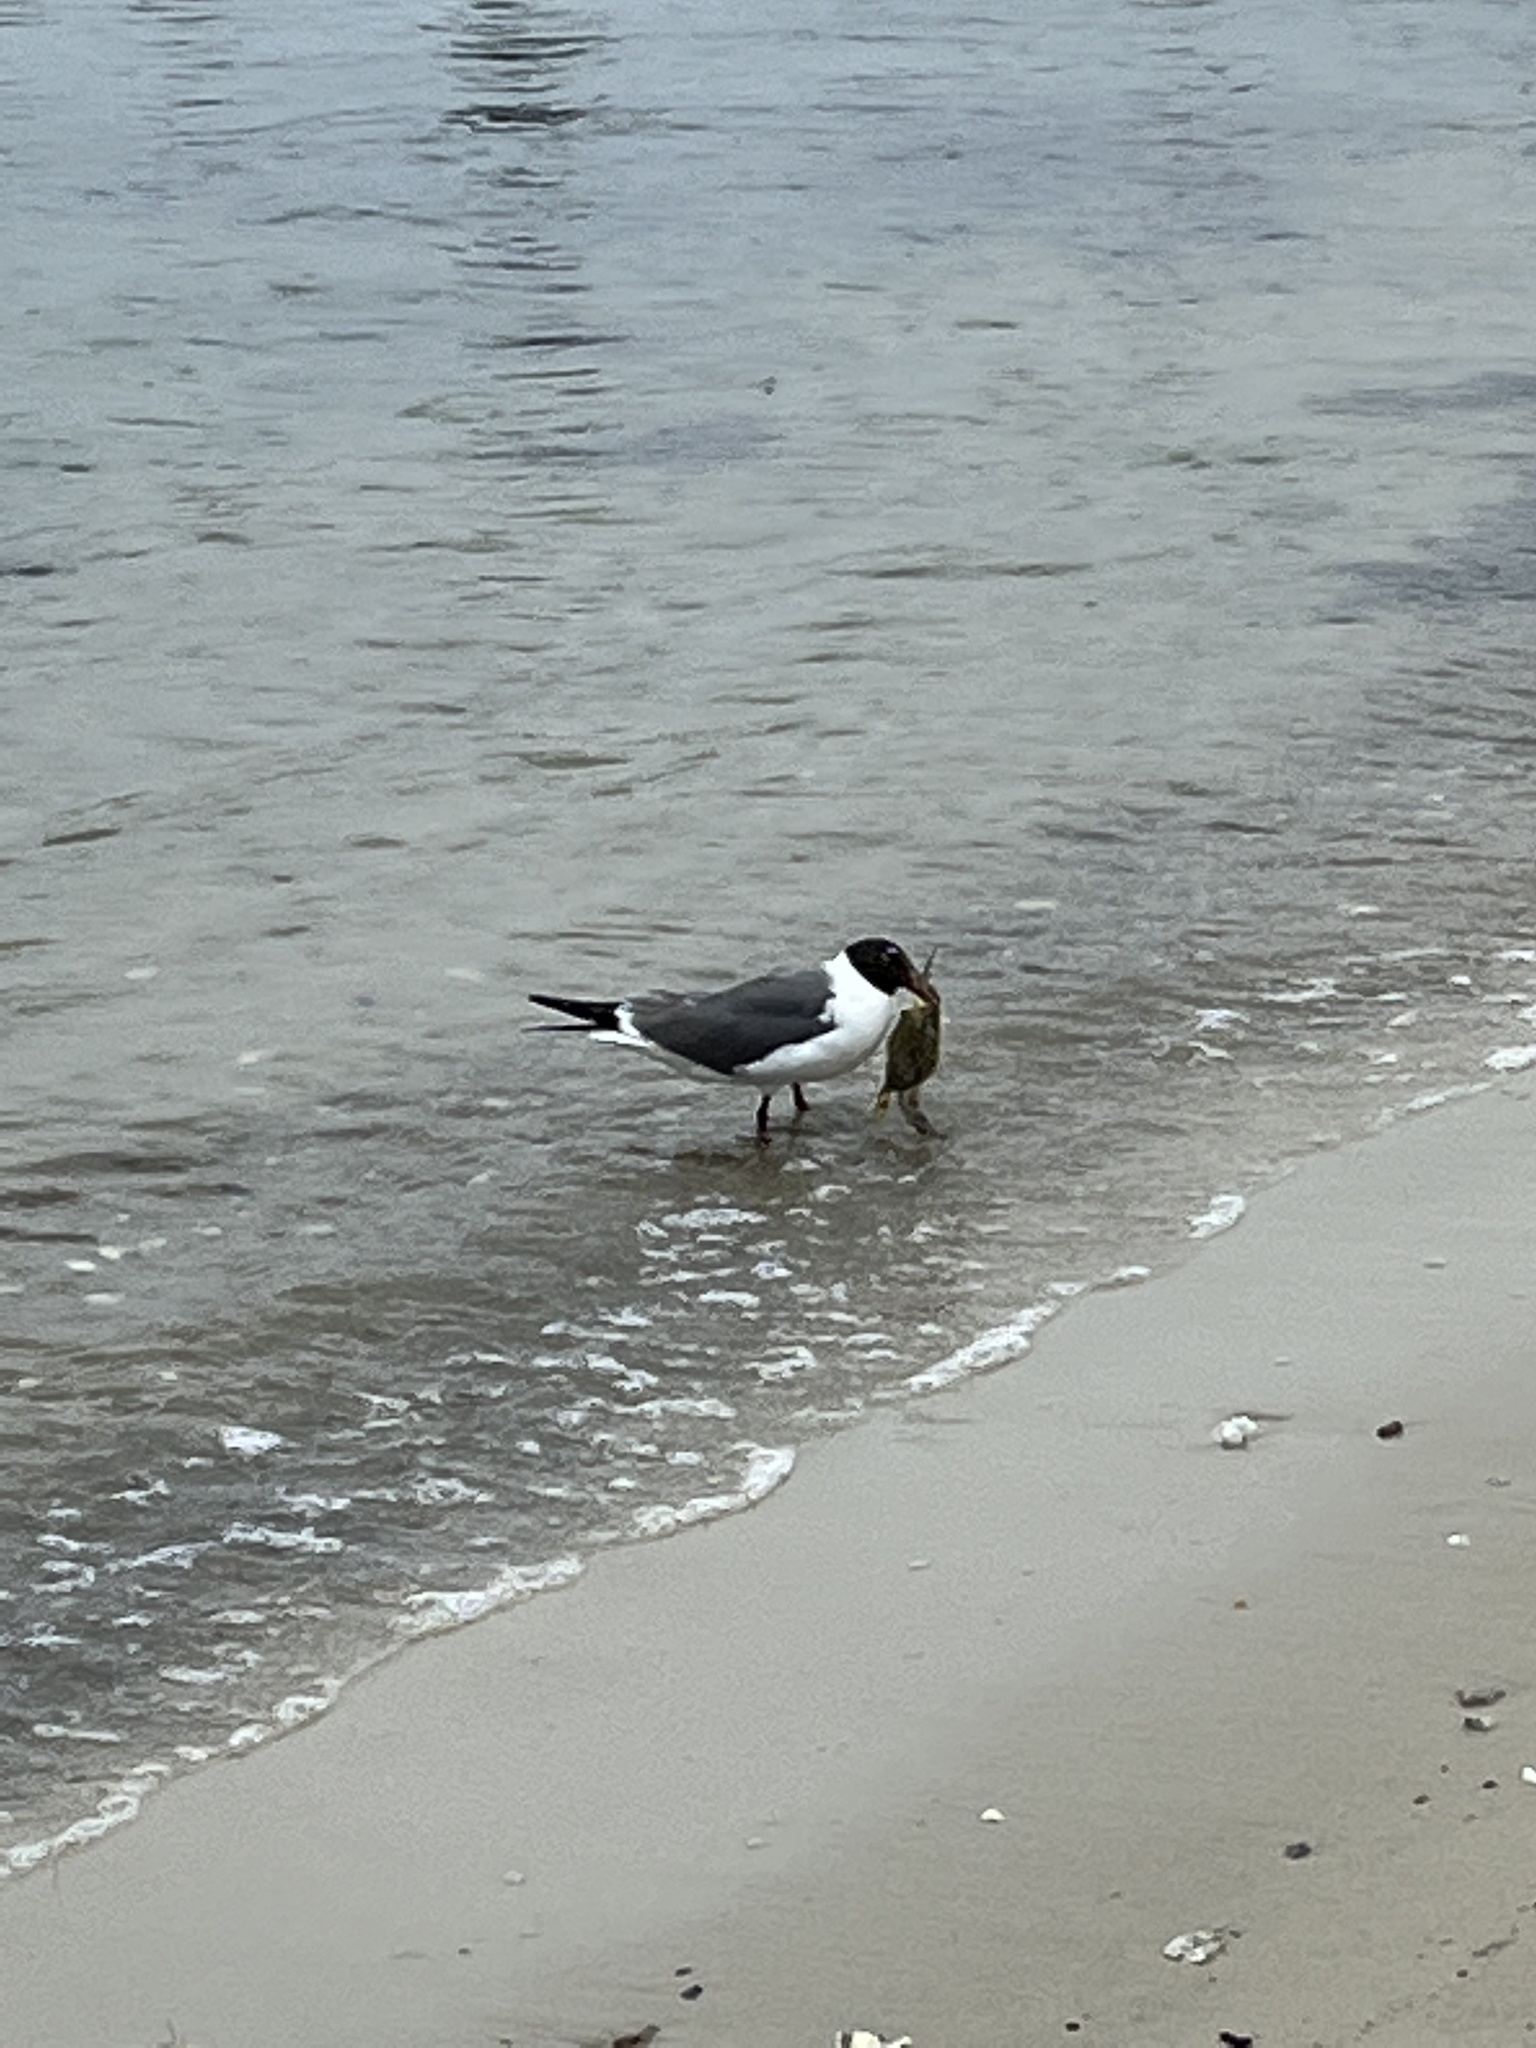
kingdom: Animalia
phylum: Chordata
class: Aves
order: Charadriiformes
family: Laridae
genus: Leucophaeus
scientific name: Leucophaeus atricilla
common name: Laughing gull
